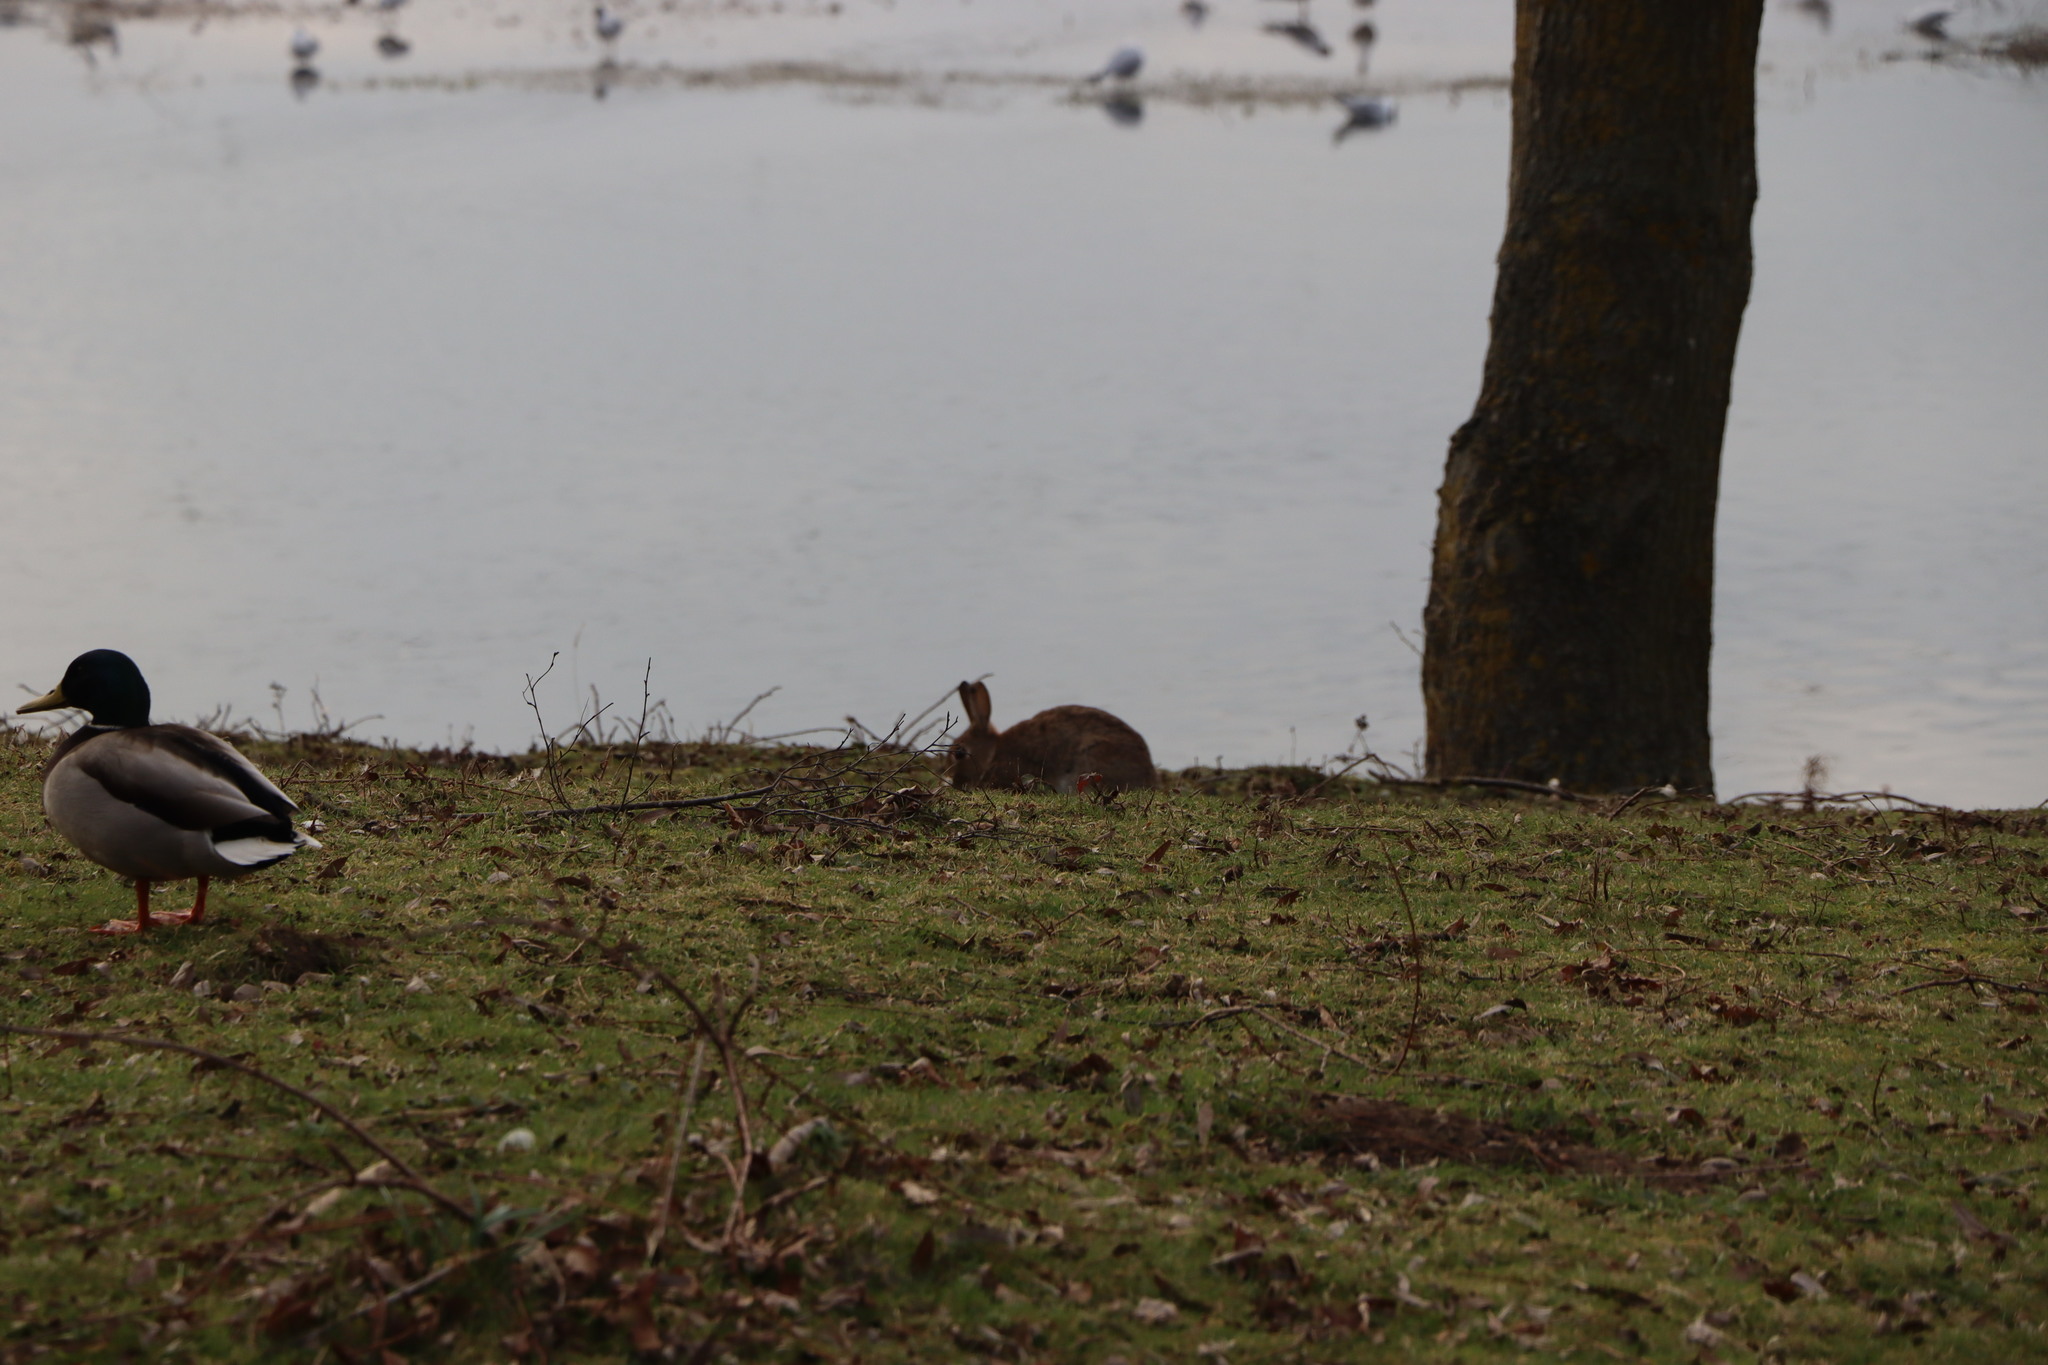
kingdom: Animalia
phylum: Chordata
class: Mammalia
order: Lagomorpha
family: Leporidae
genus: Oryctolagus
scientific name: Oryctolagus cuniculus
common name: European rabbit
